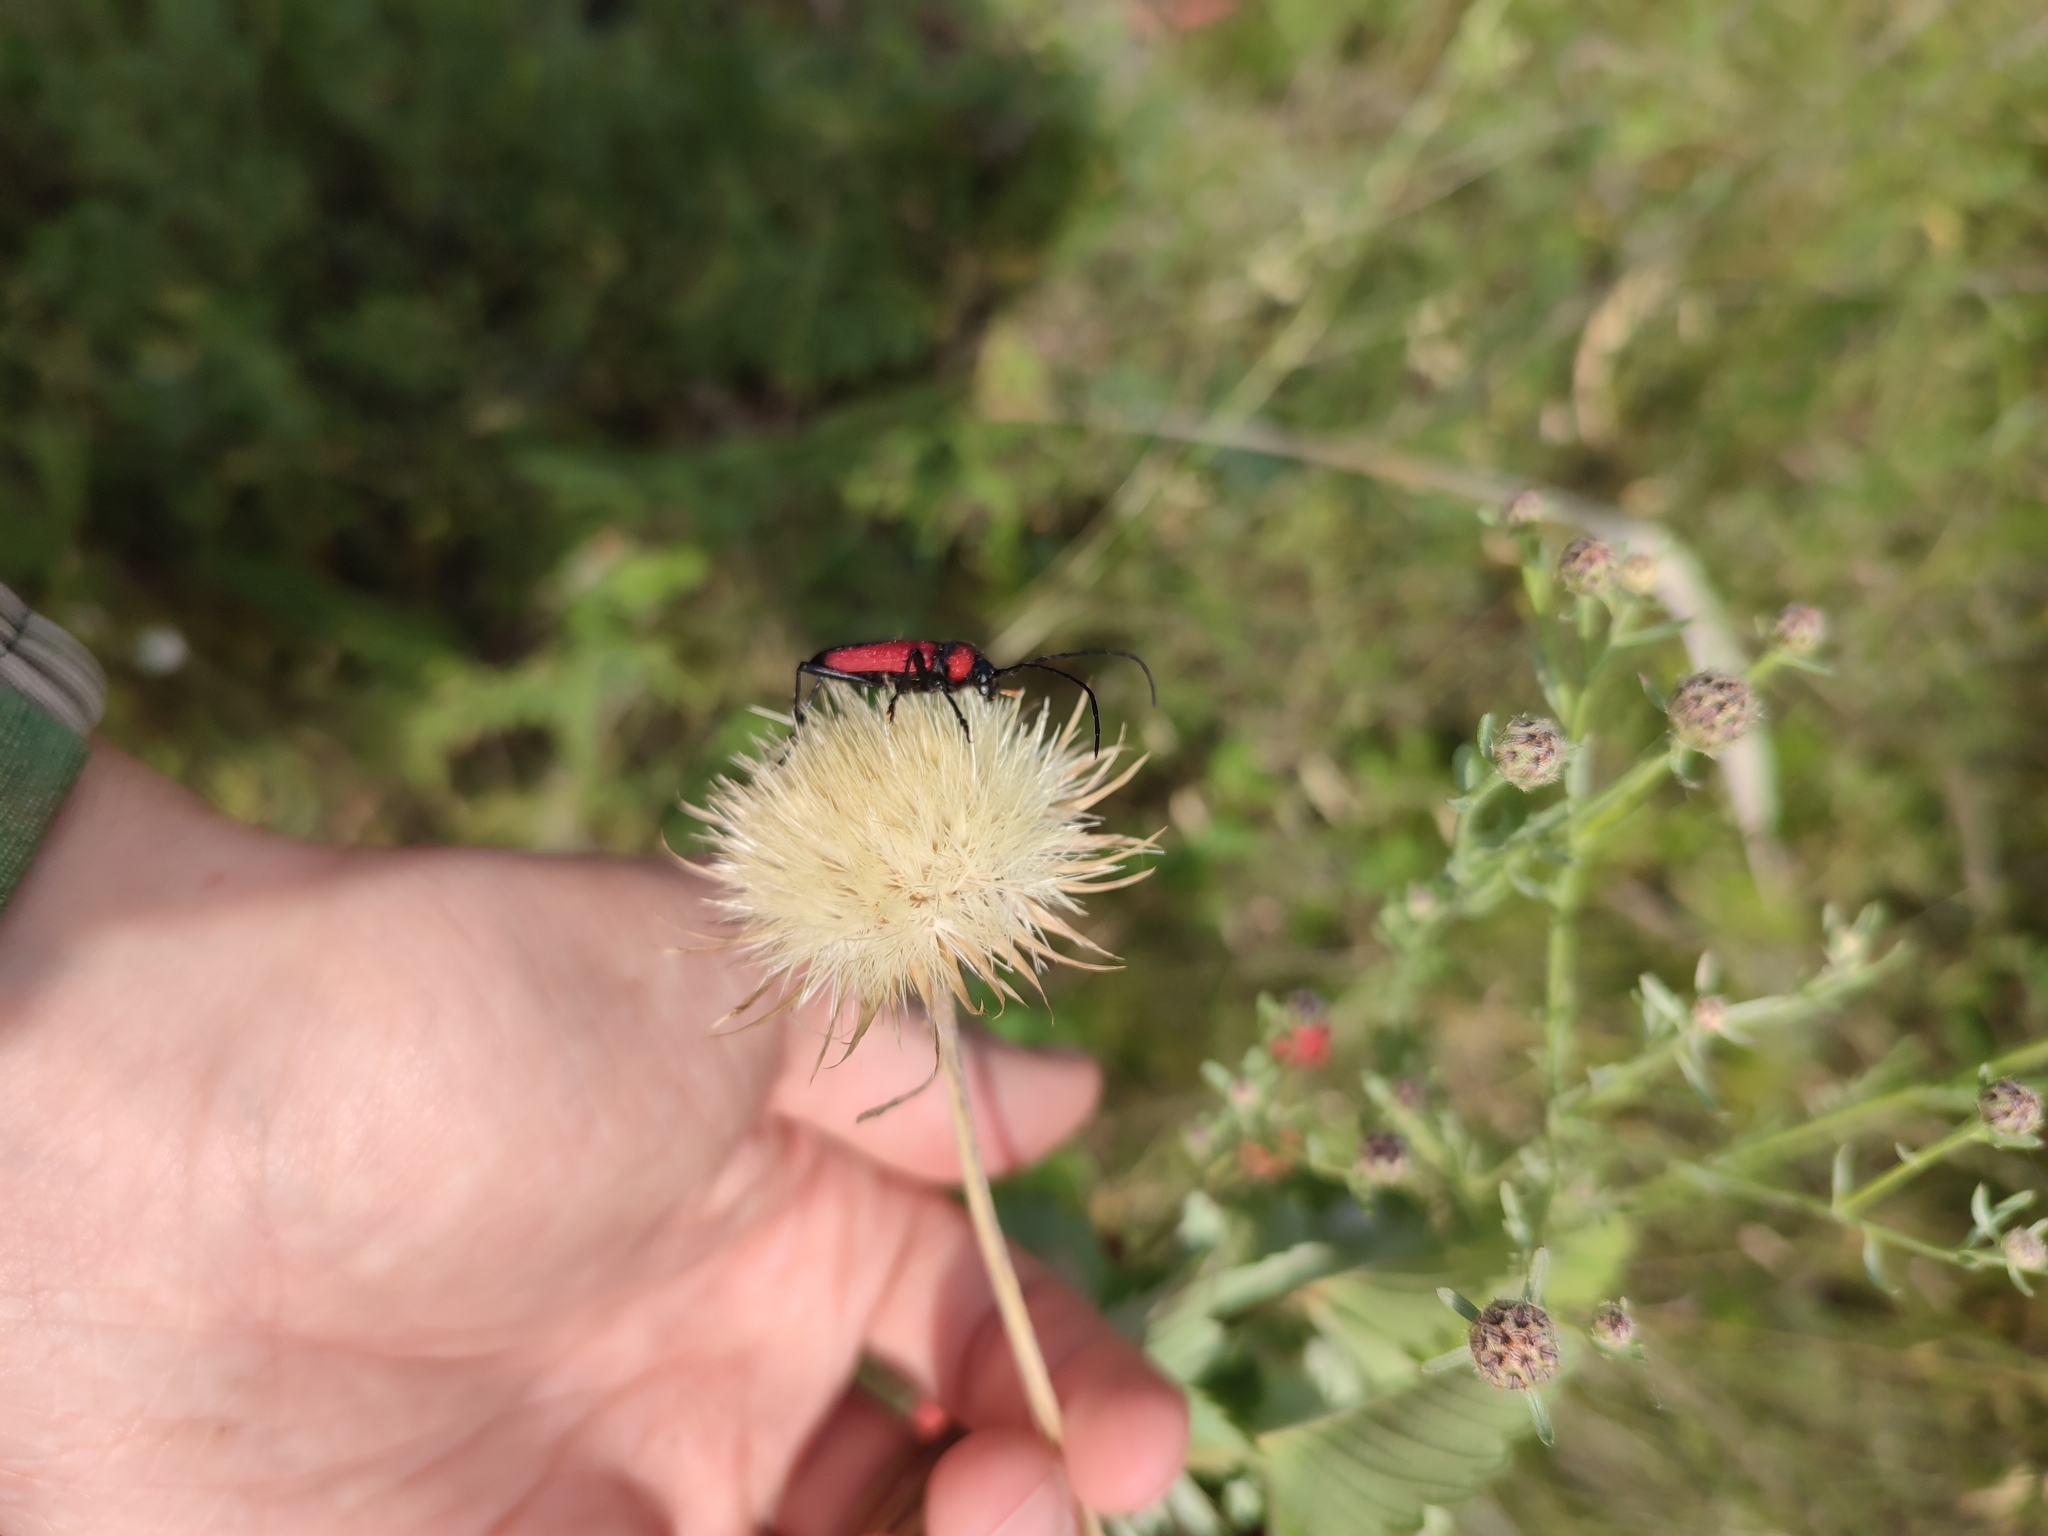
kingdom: Animalia
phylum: Arthropoda
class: Insecta
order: Coleoptera
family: Cerambycidae
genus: Purpuricenus
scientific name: Purpuricenus budensis
